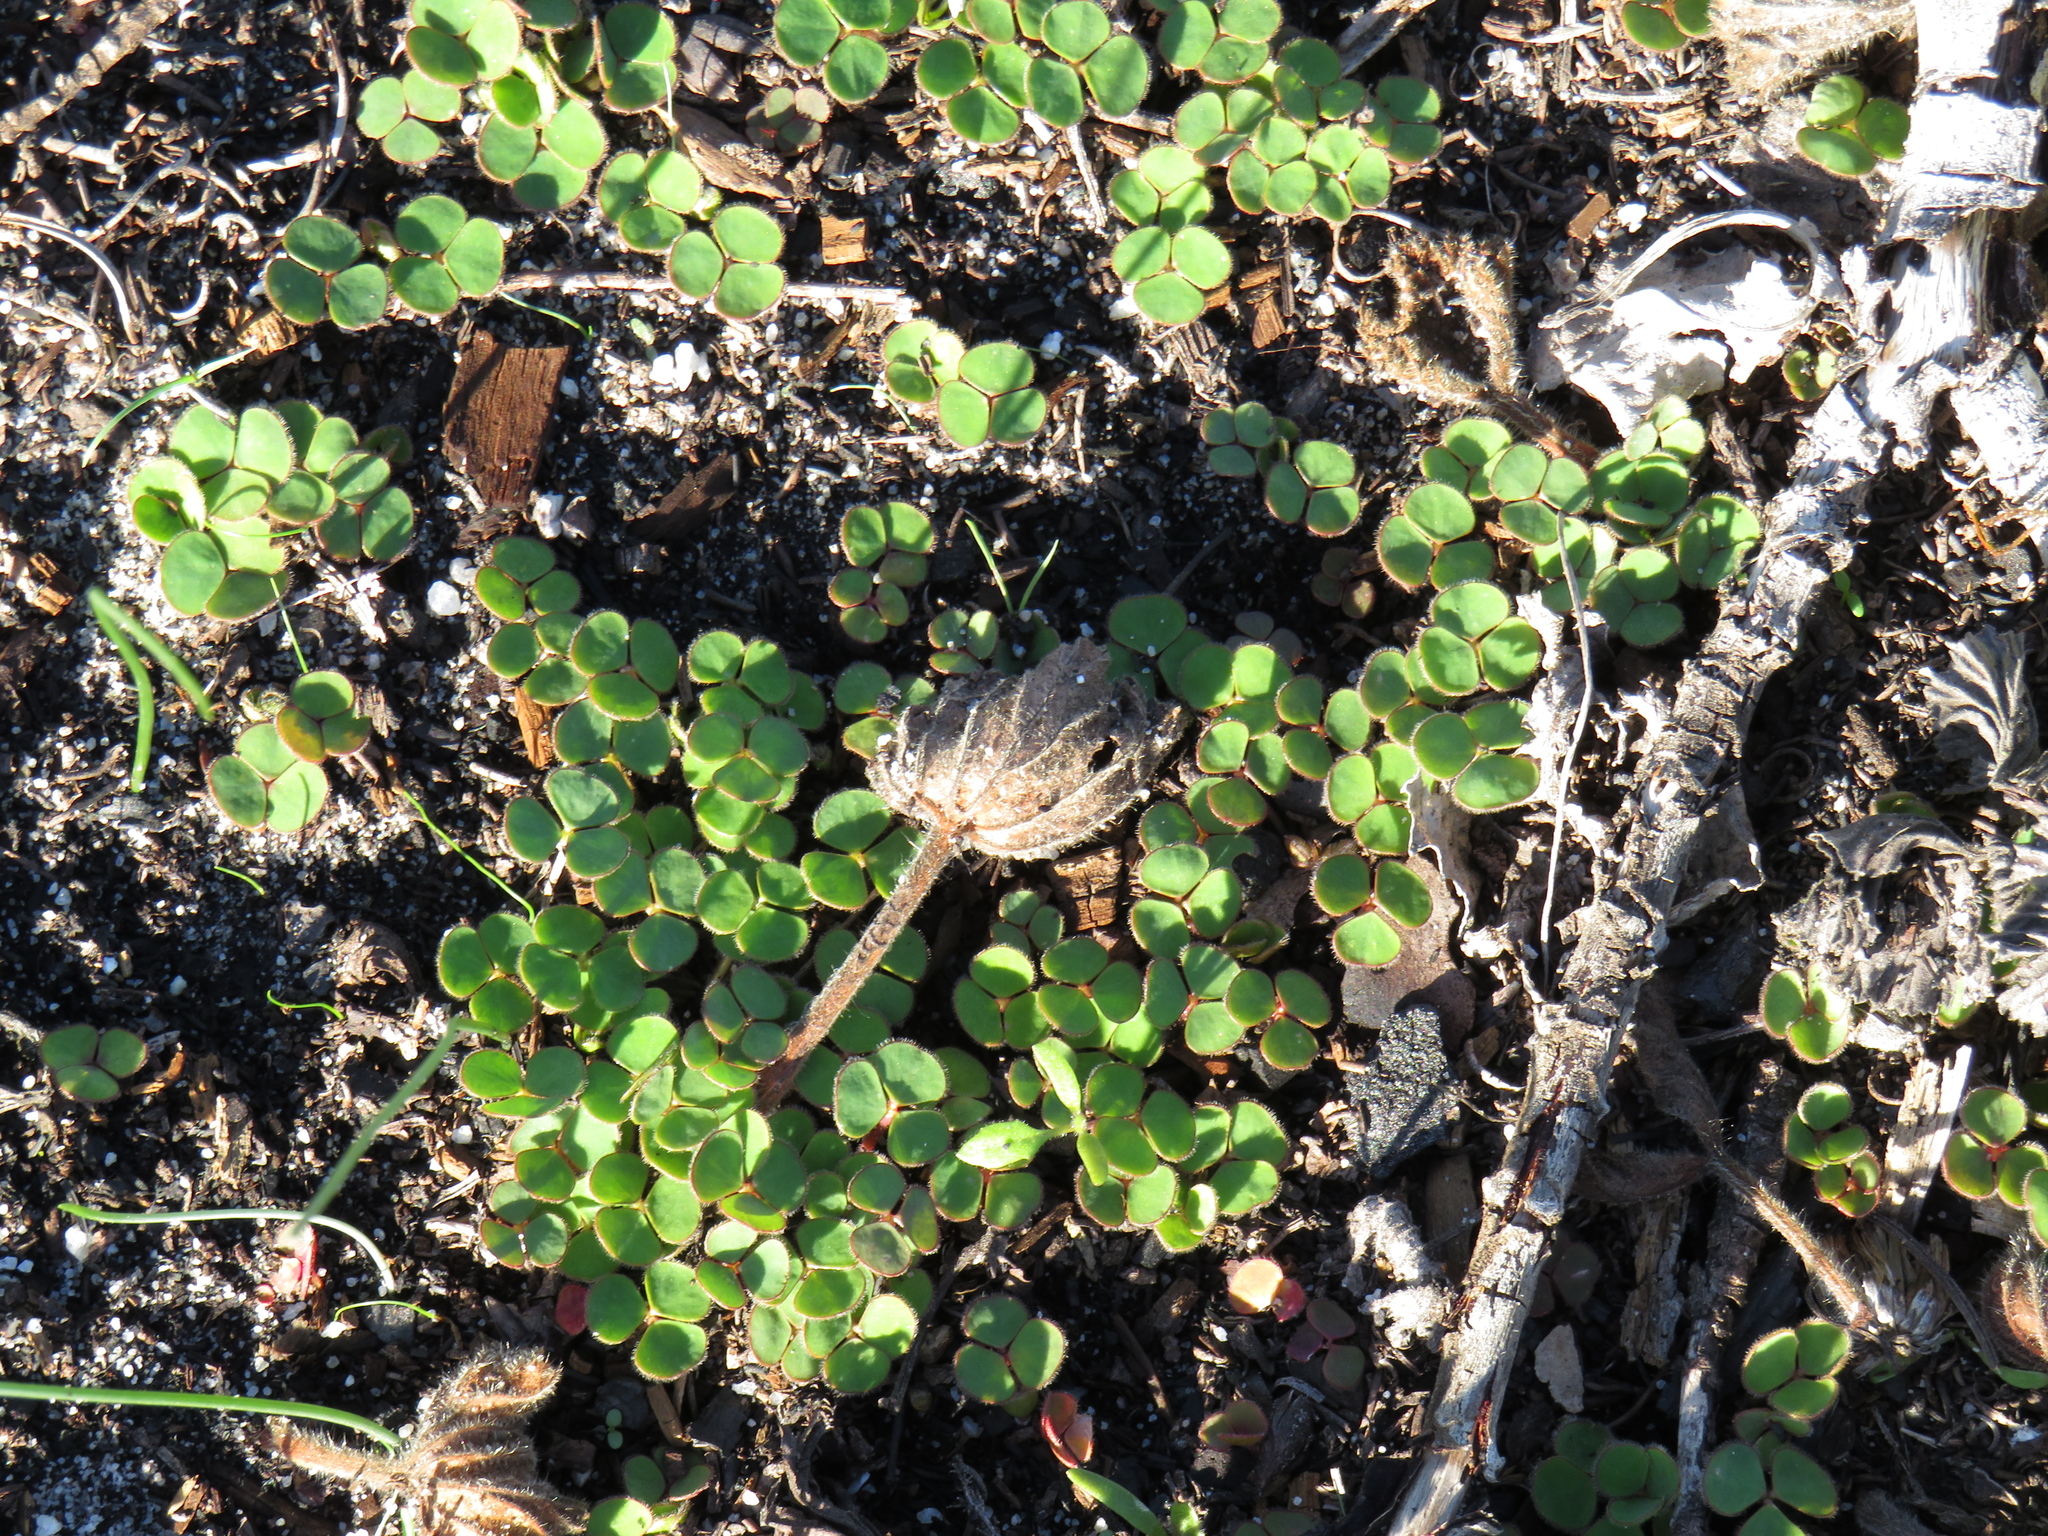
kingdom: Plantae
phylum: Tracheophyta
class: Magnoliopsida
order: Oxalidales
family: Oxalidaceae
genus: Oxalis
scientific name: Oxalis luteola
